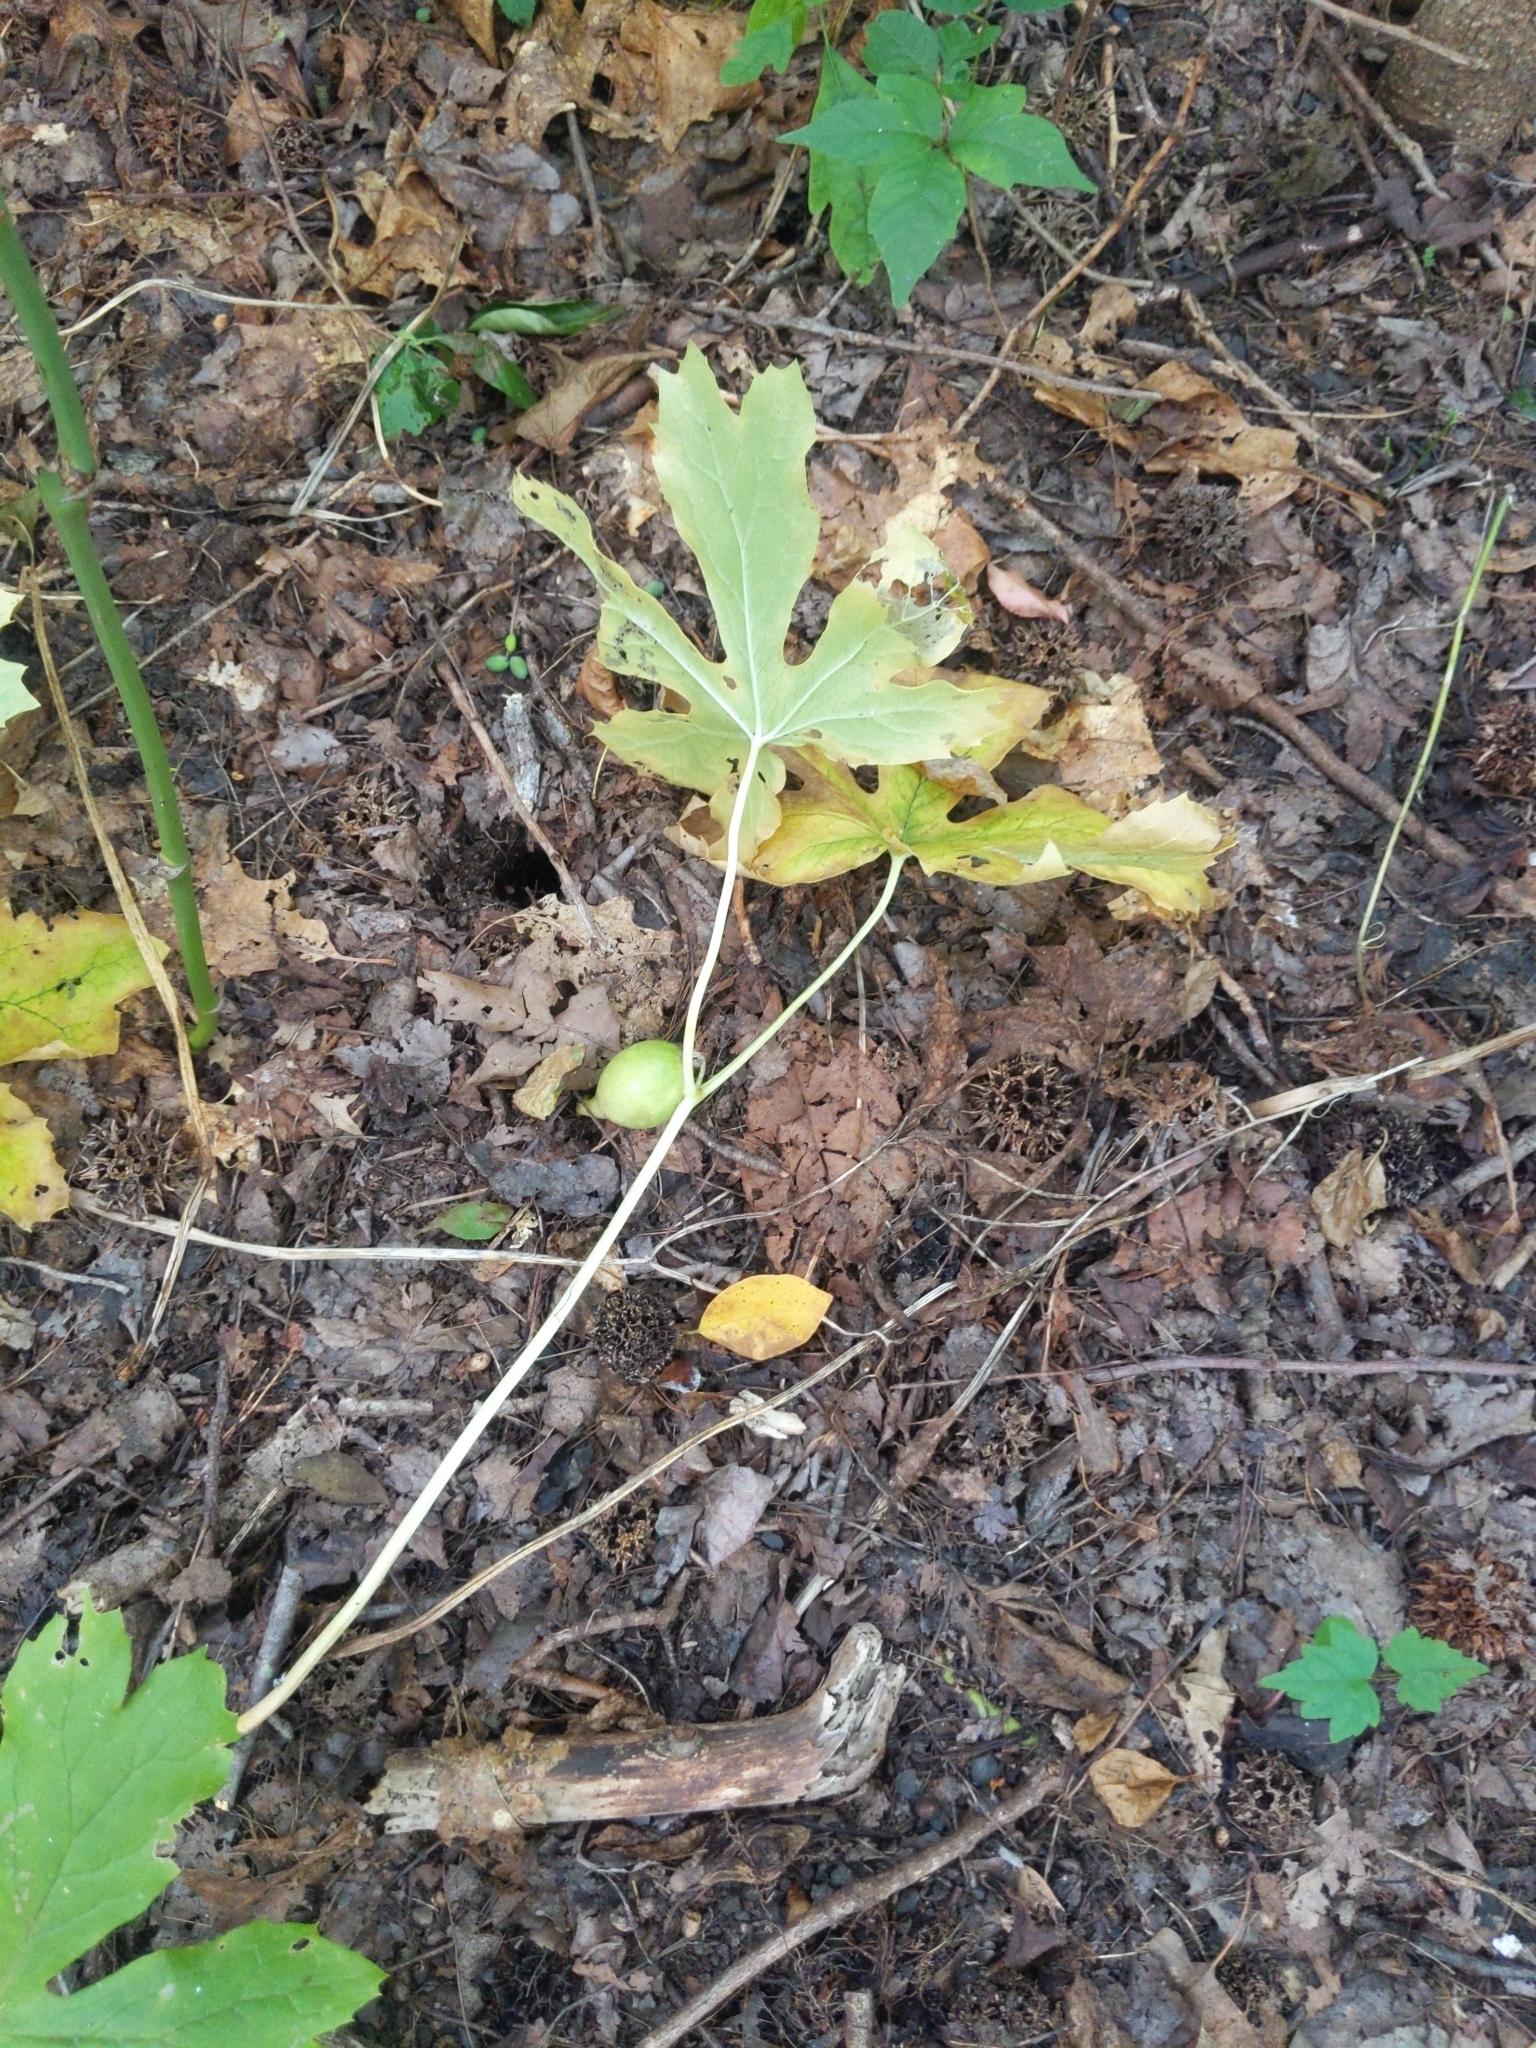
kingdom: Plantae
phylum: Tracheophyta
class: Magnoliopsida
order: Ranunculales
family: Berberidaceae
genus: Podophyllum
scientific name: Podophyllum peltatum
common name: Wild mandrake
